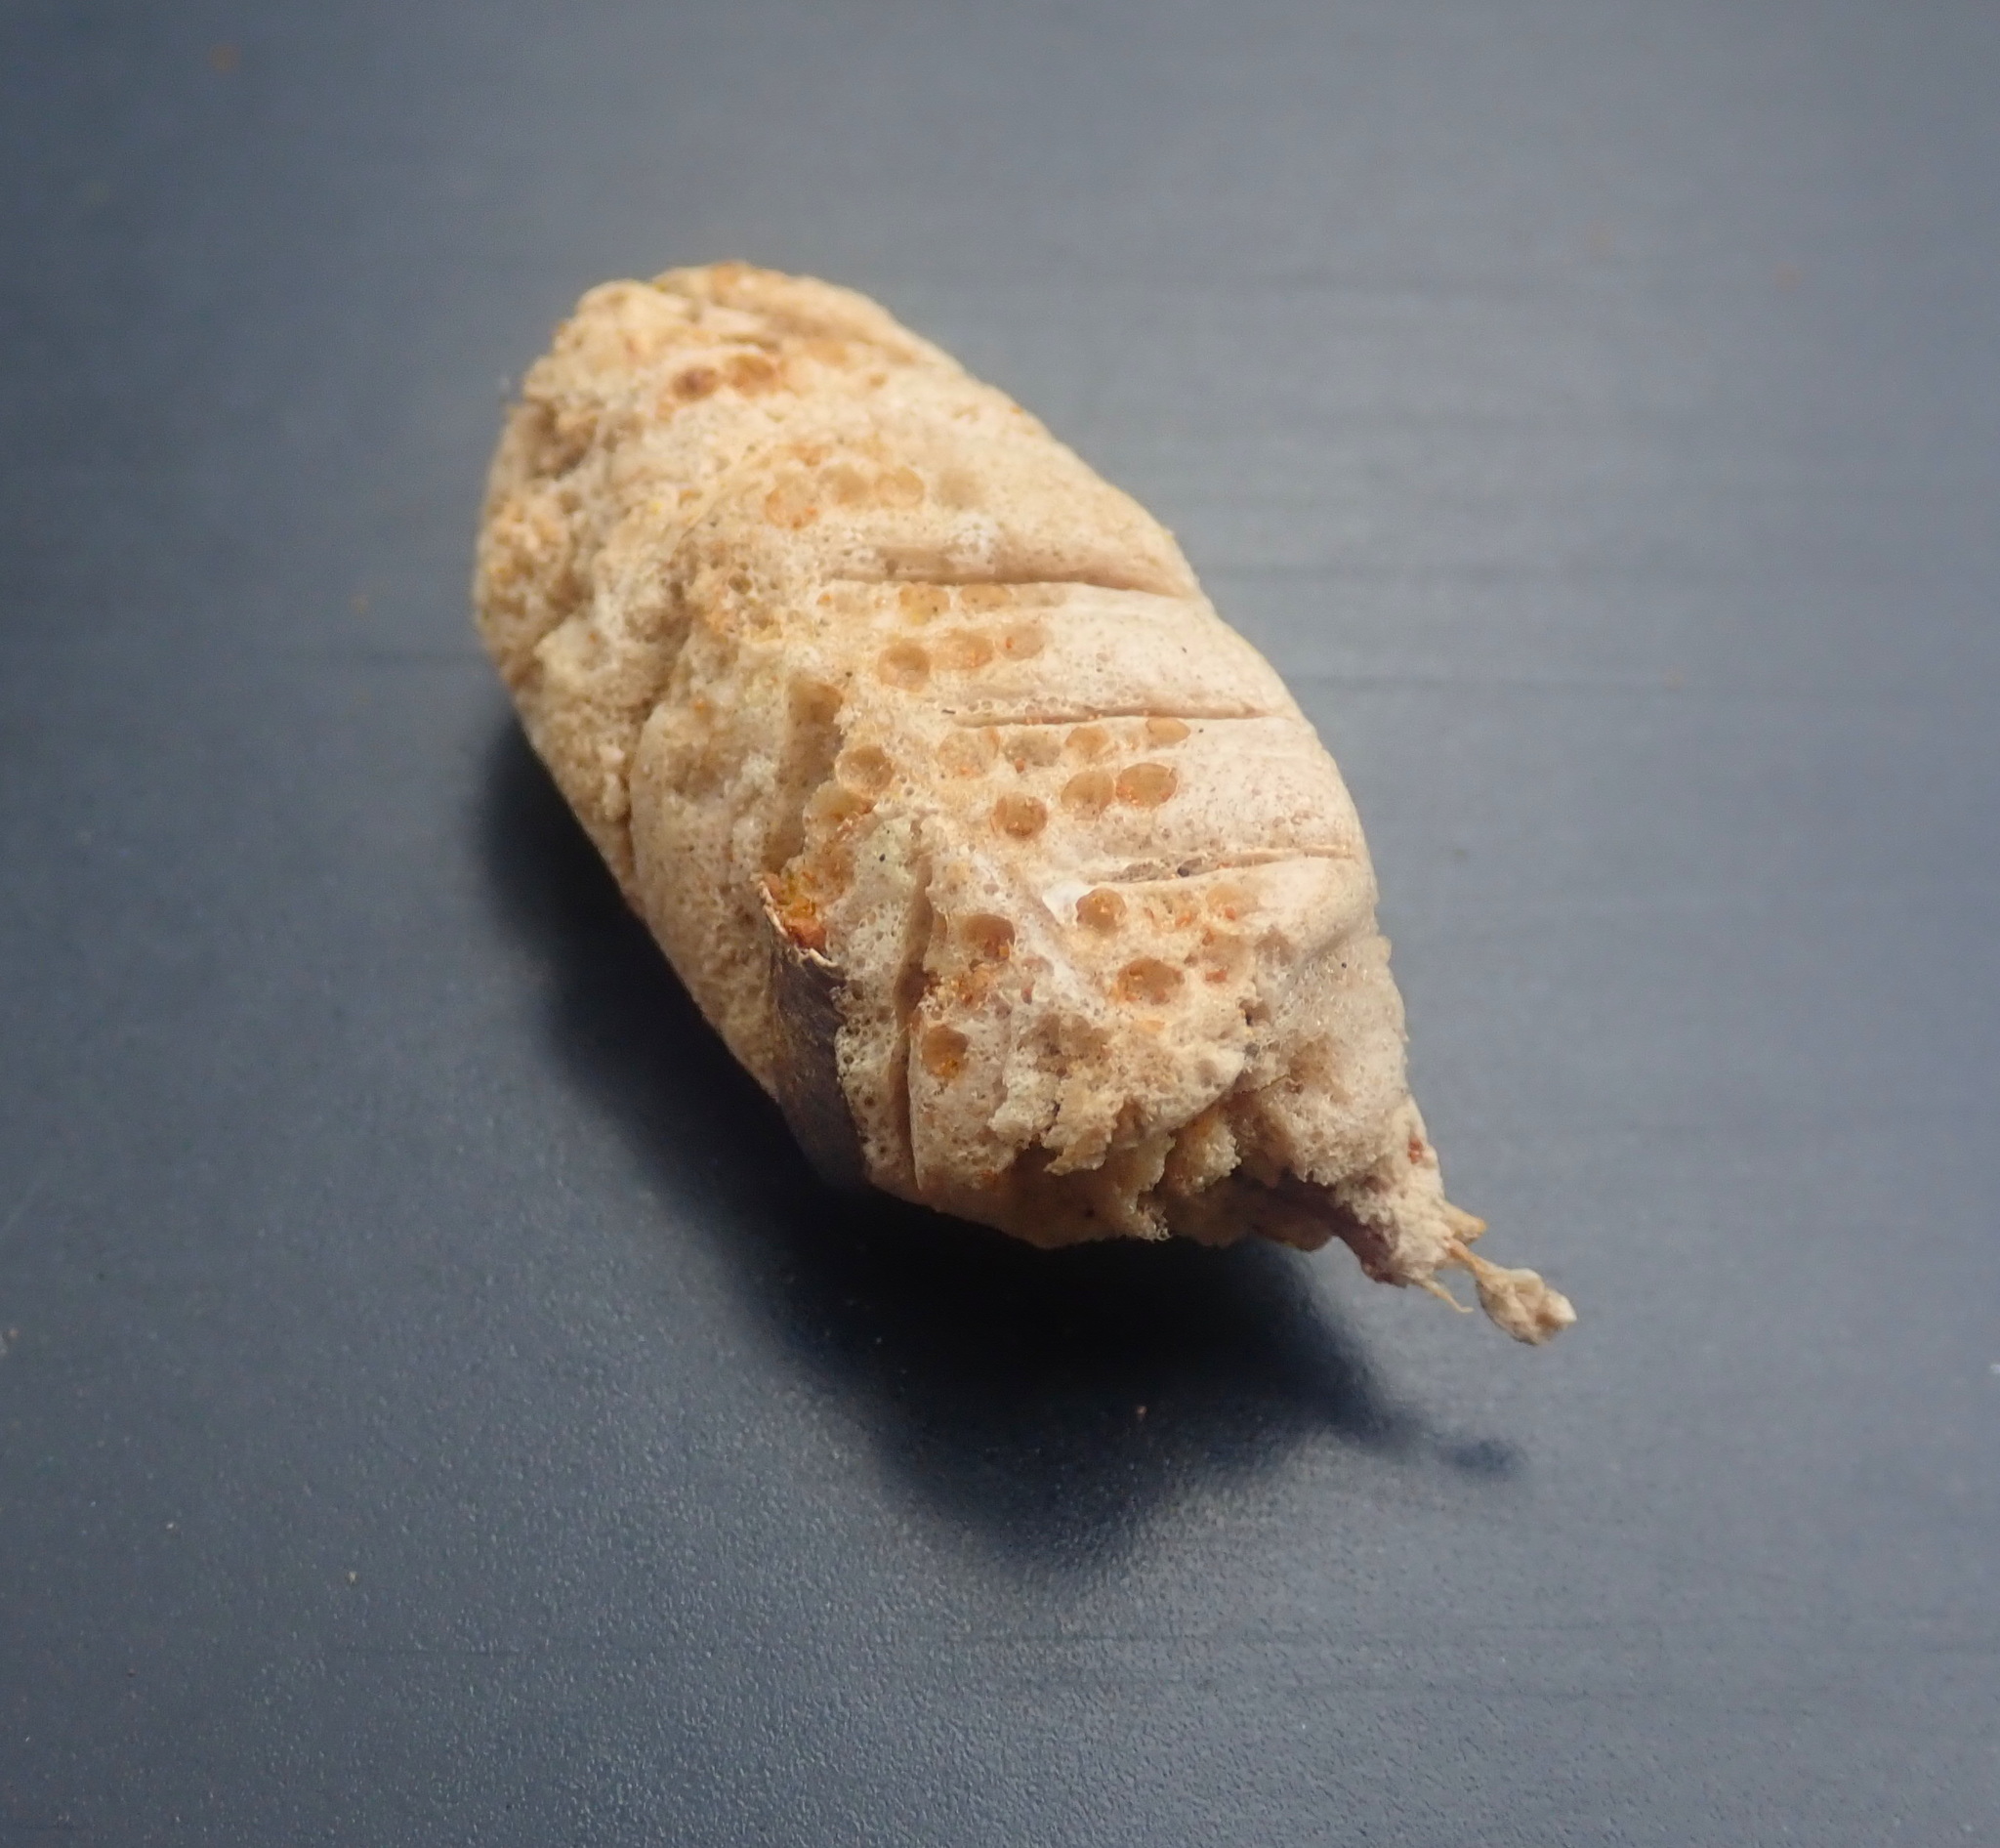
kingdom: Animalia
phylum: Arthropoda
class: Insecta
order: Mantodea
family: Miomantidae
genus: Miomantis
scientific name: Miomantis caffra
